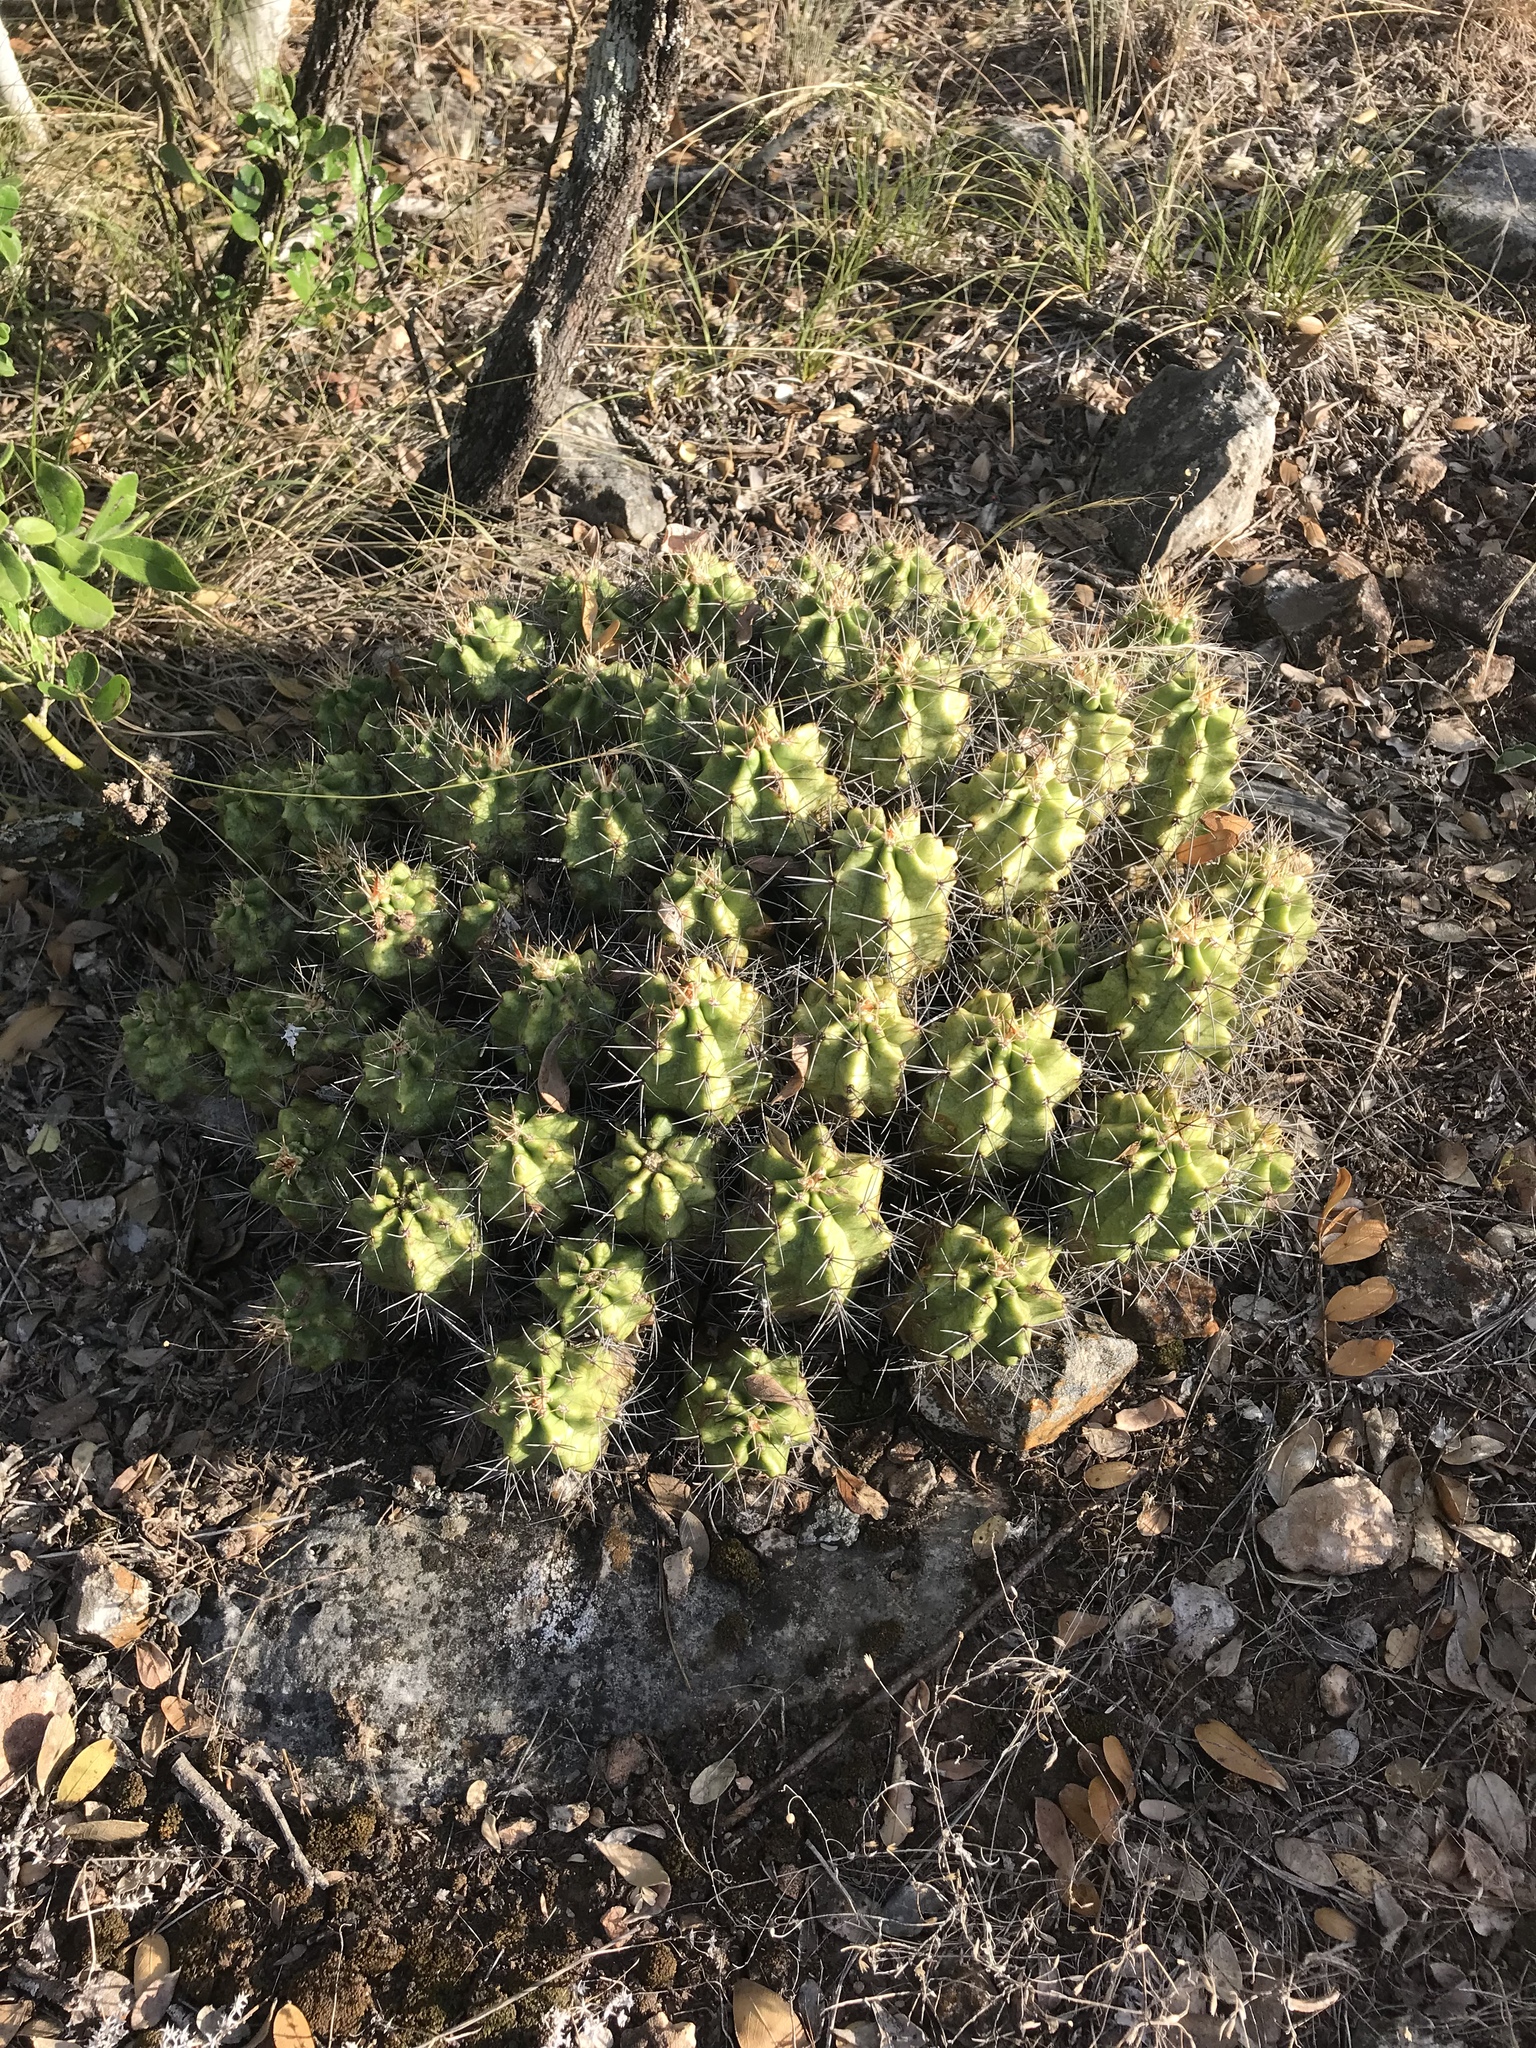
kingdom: Plantae
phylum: Tracheophyta
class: Magnoliopsida
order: Caryophyllales
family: Cactaceae
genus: Echinocereus
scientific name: Echinocereus coccineus
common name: Scarlet hedgehog cactus
